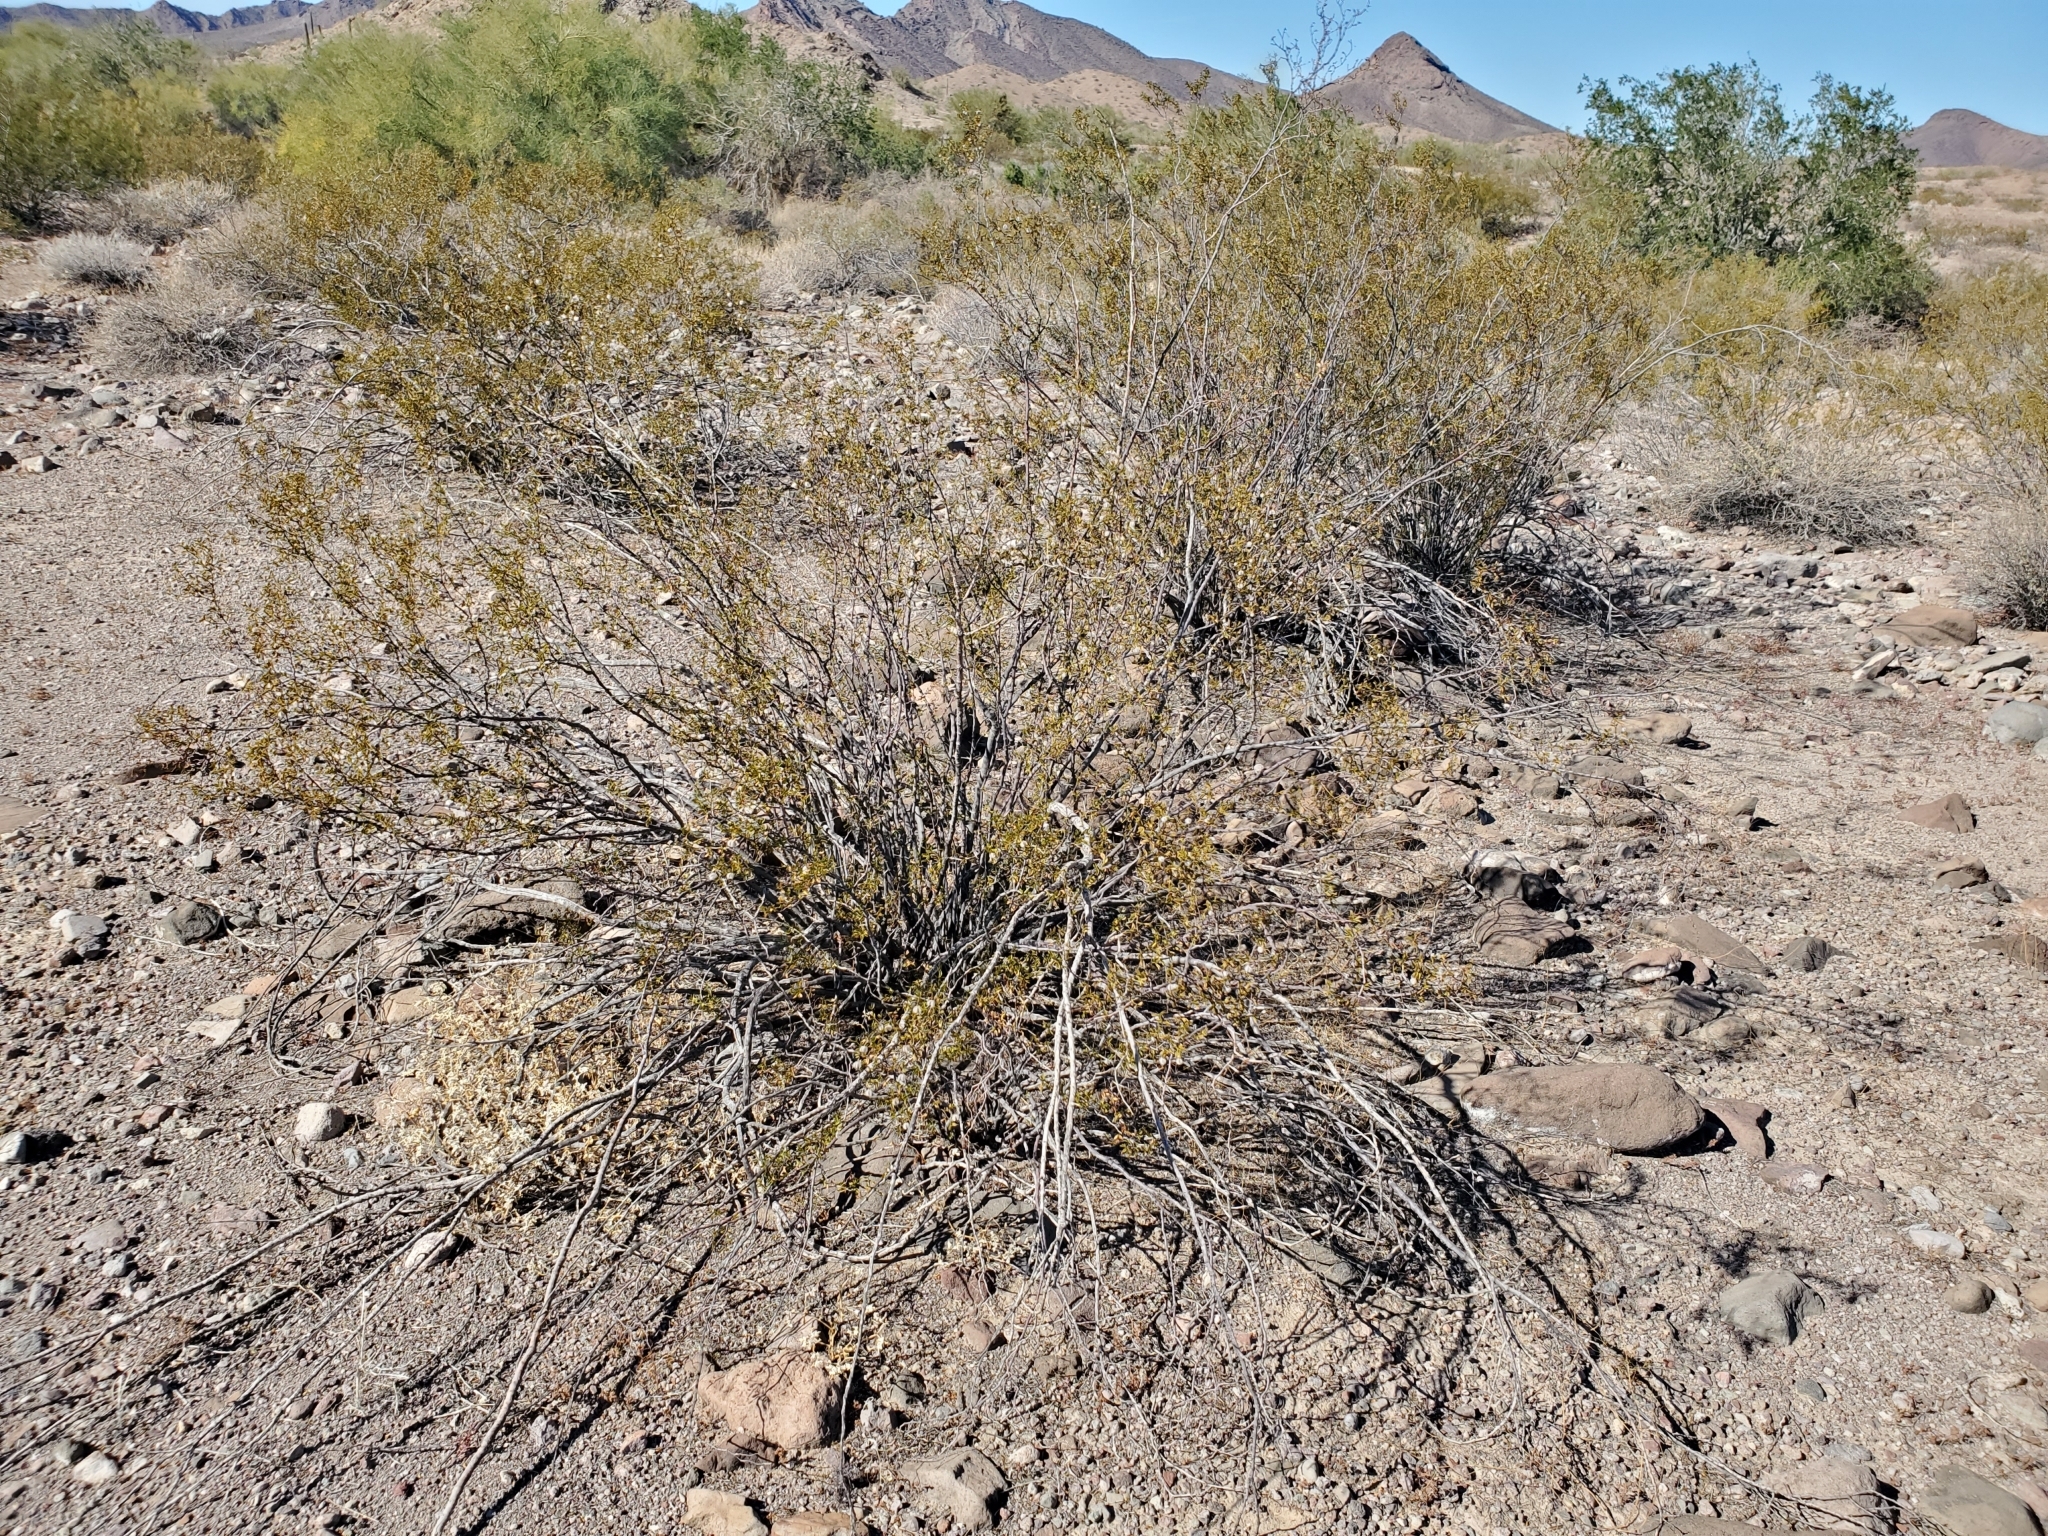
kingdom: Plantae
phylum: Tracheophyta
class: Magnoliopsida
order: Zygophyllales
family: Zygophyllaceae
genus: Larrea
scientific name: Larrea tridentata
